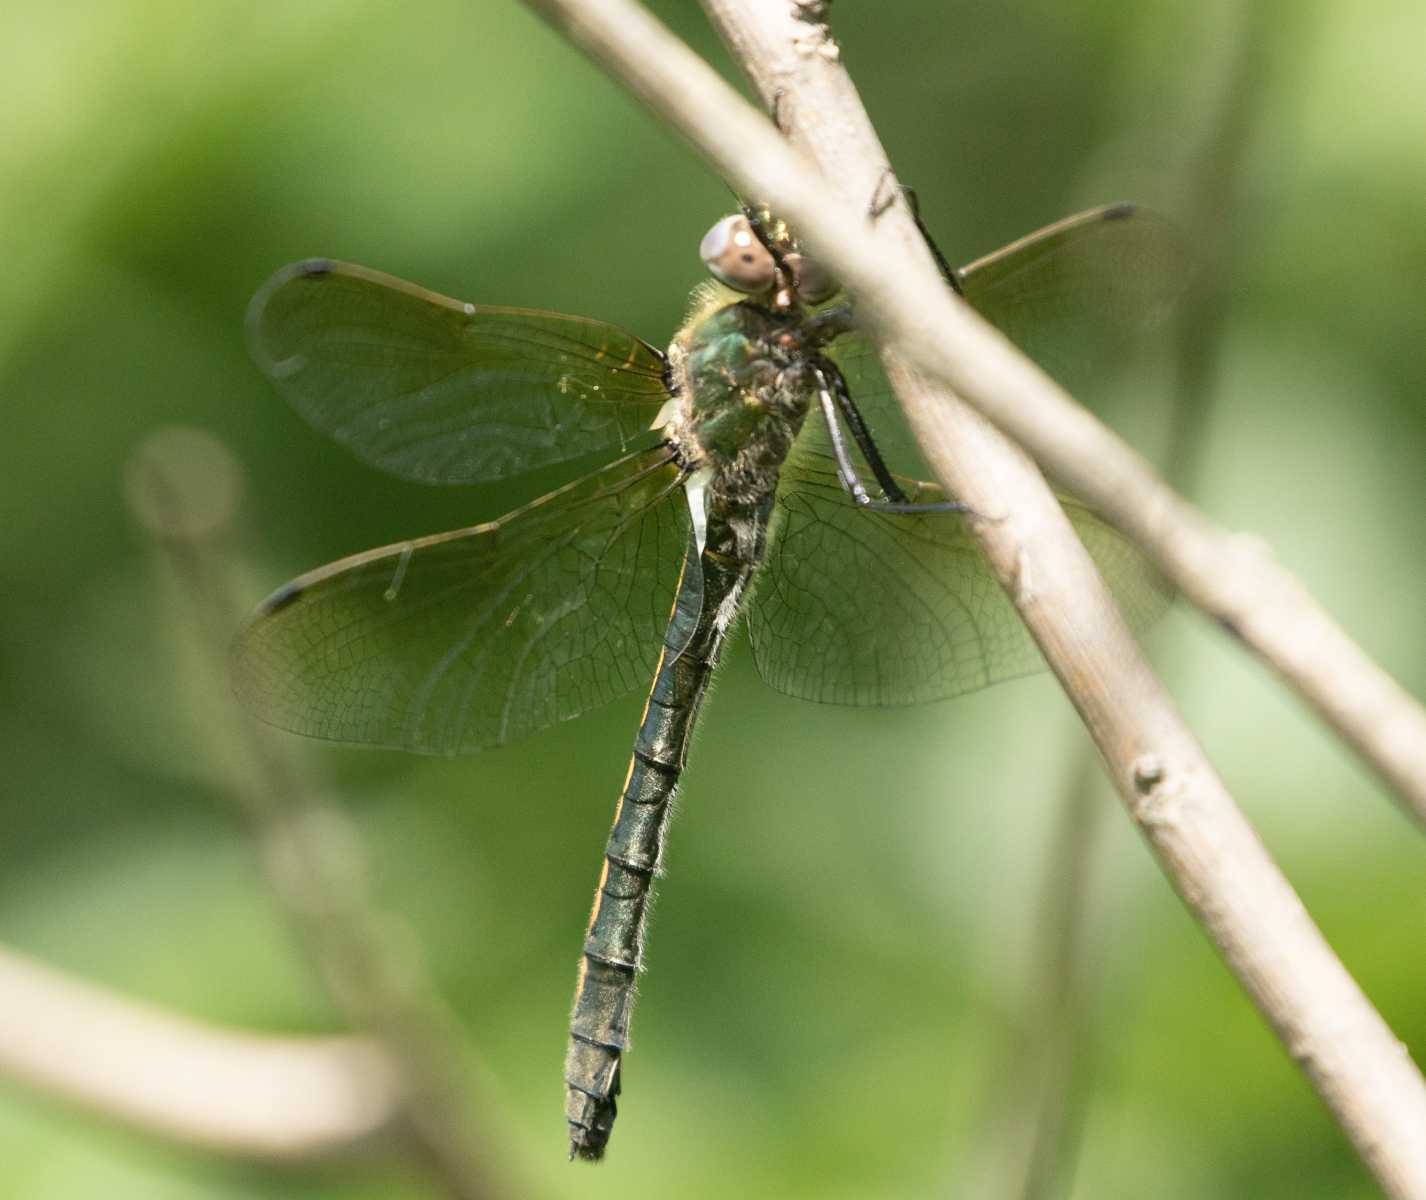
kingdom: Animalia
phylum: Arthropoda
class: Insecta
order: Odonata
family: Corduliidae
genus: Oxygastra
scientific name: Oxygastra curtisii
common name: Orange-spotted emerald
